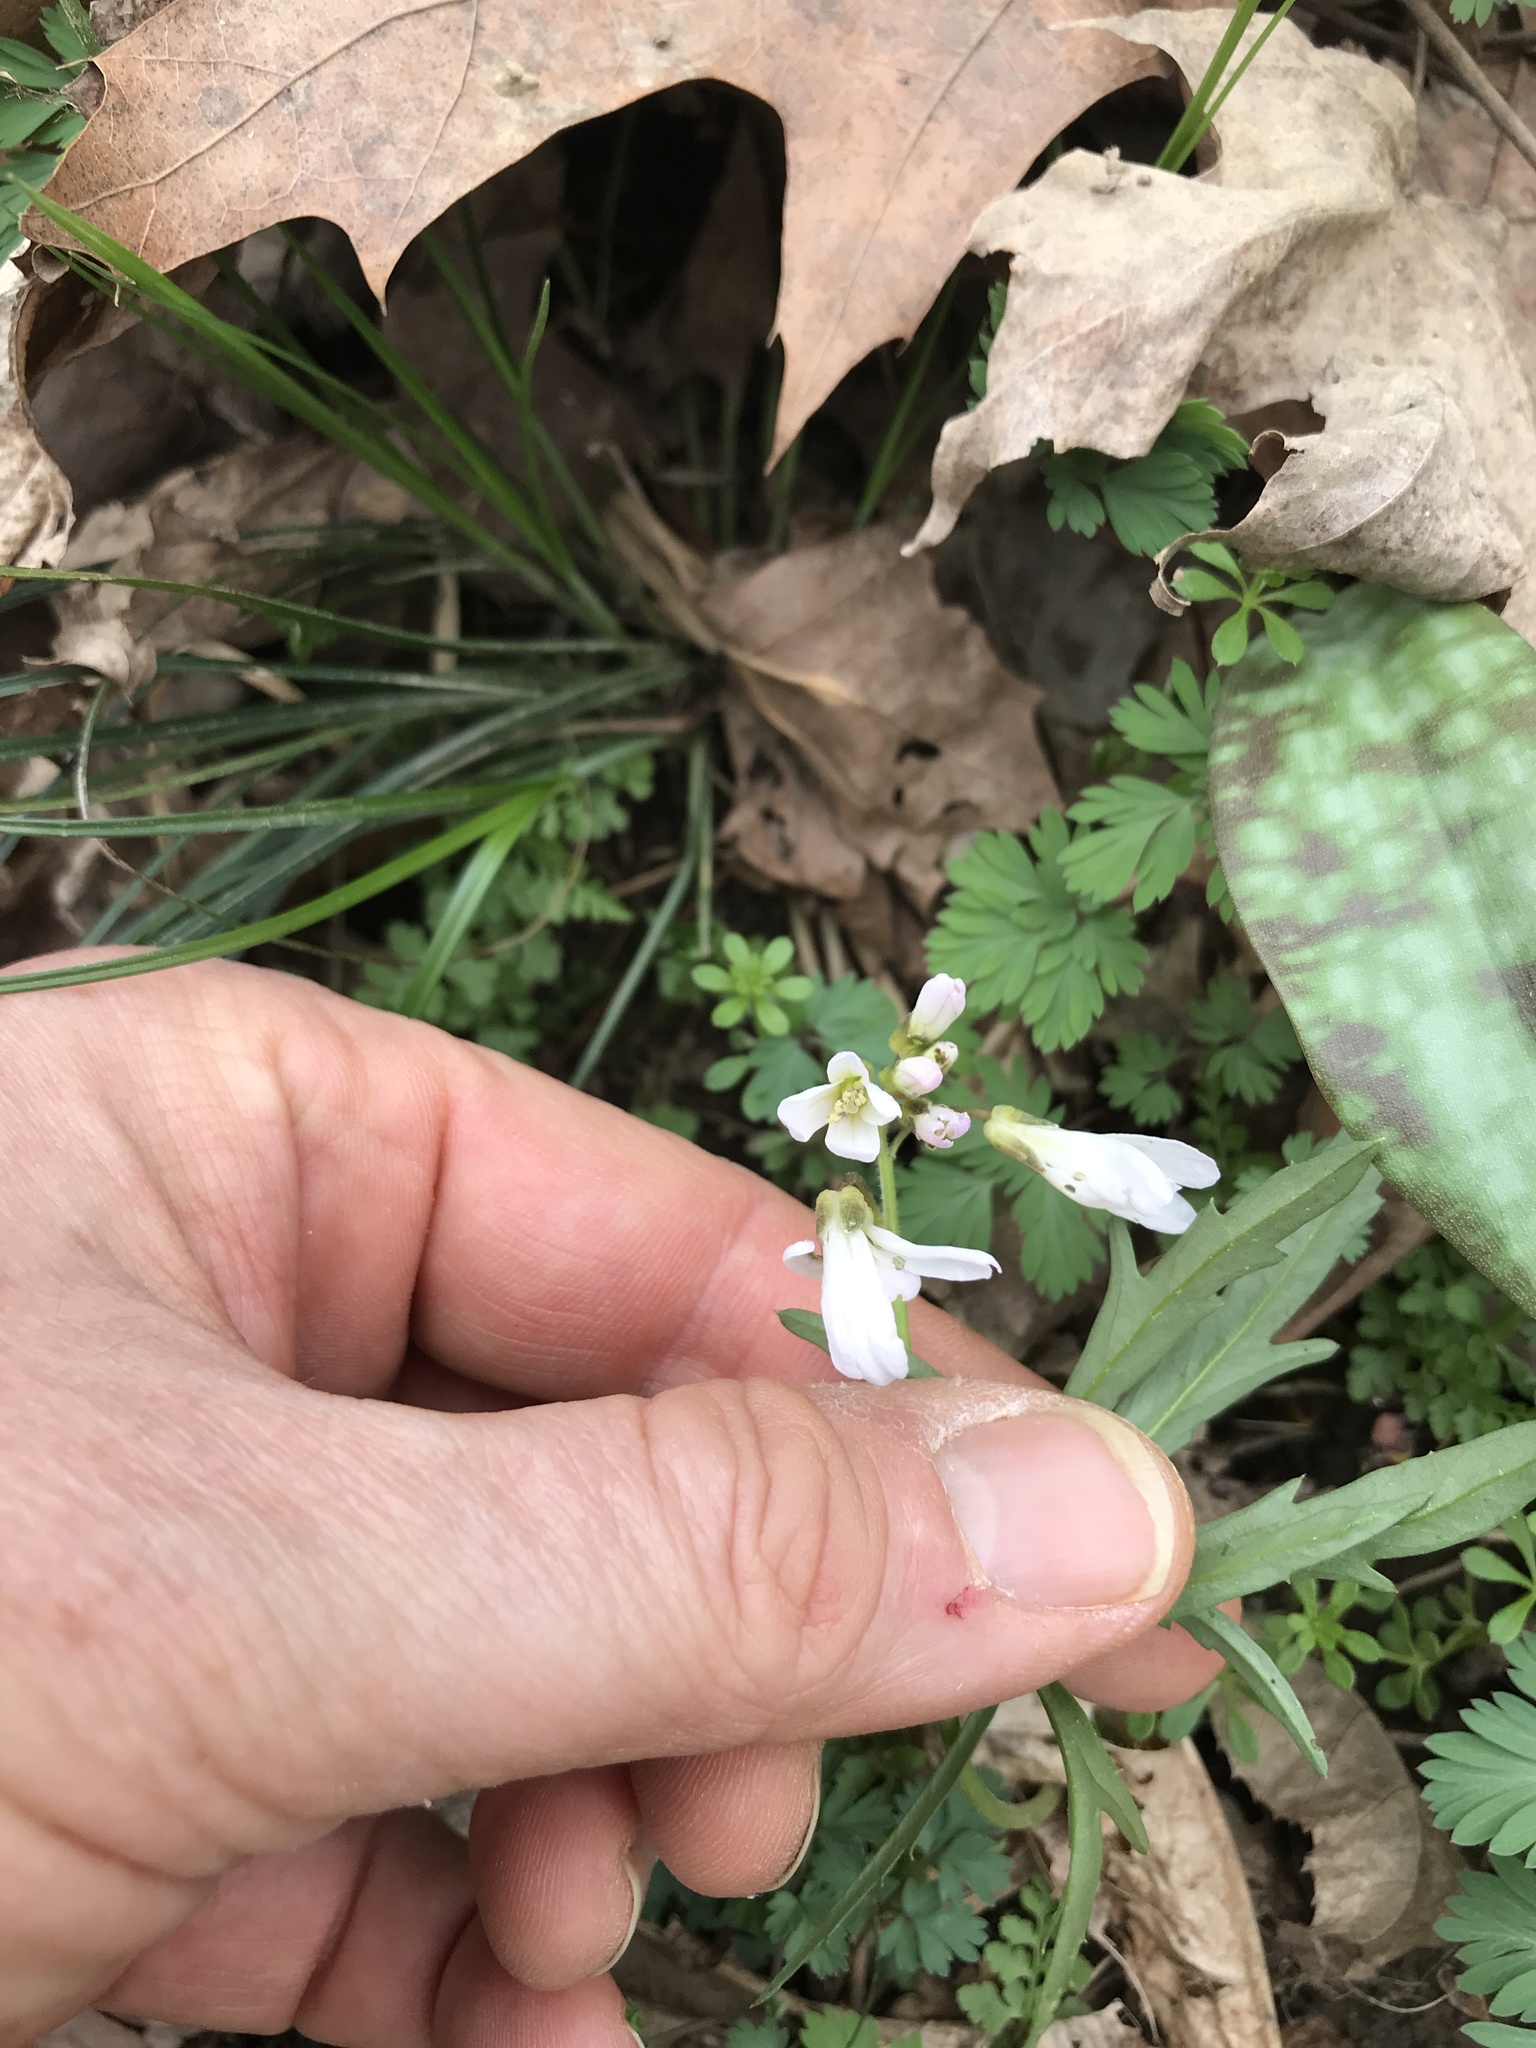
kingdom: Plantae
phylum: Tracheophyta
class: Magnoliopsida
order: Brassicales
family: Brassicaceae
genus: Cardamine
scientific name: Cardamine concatenata
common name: Cut-leaf toothcup
